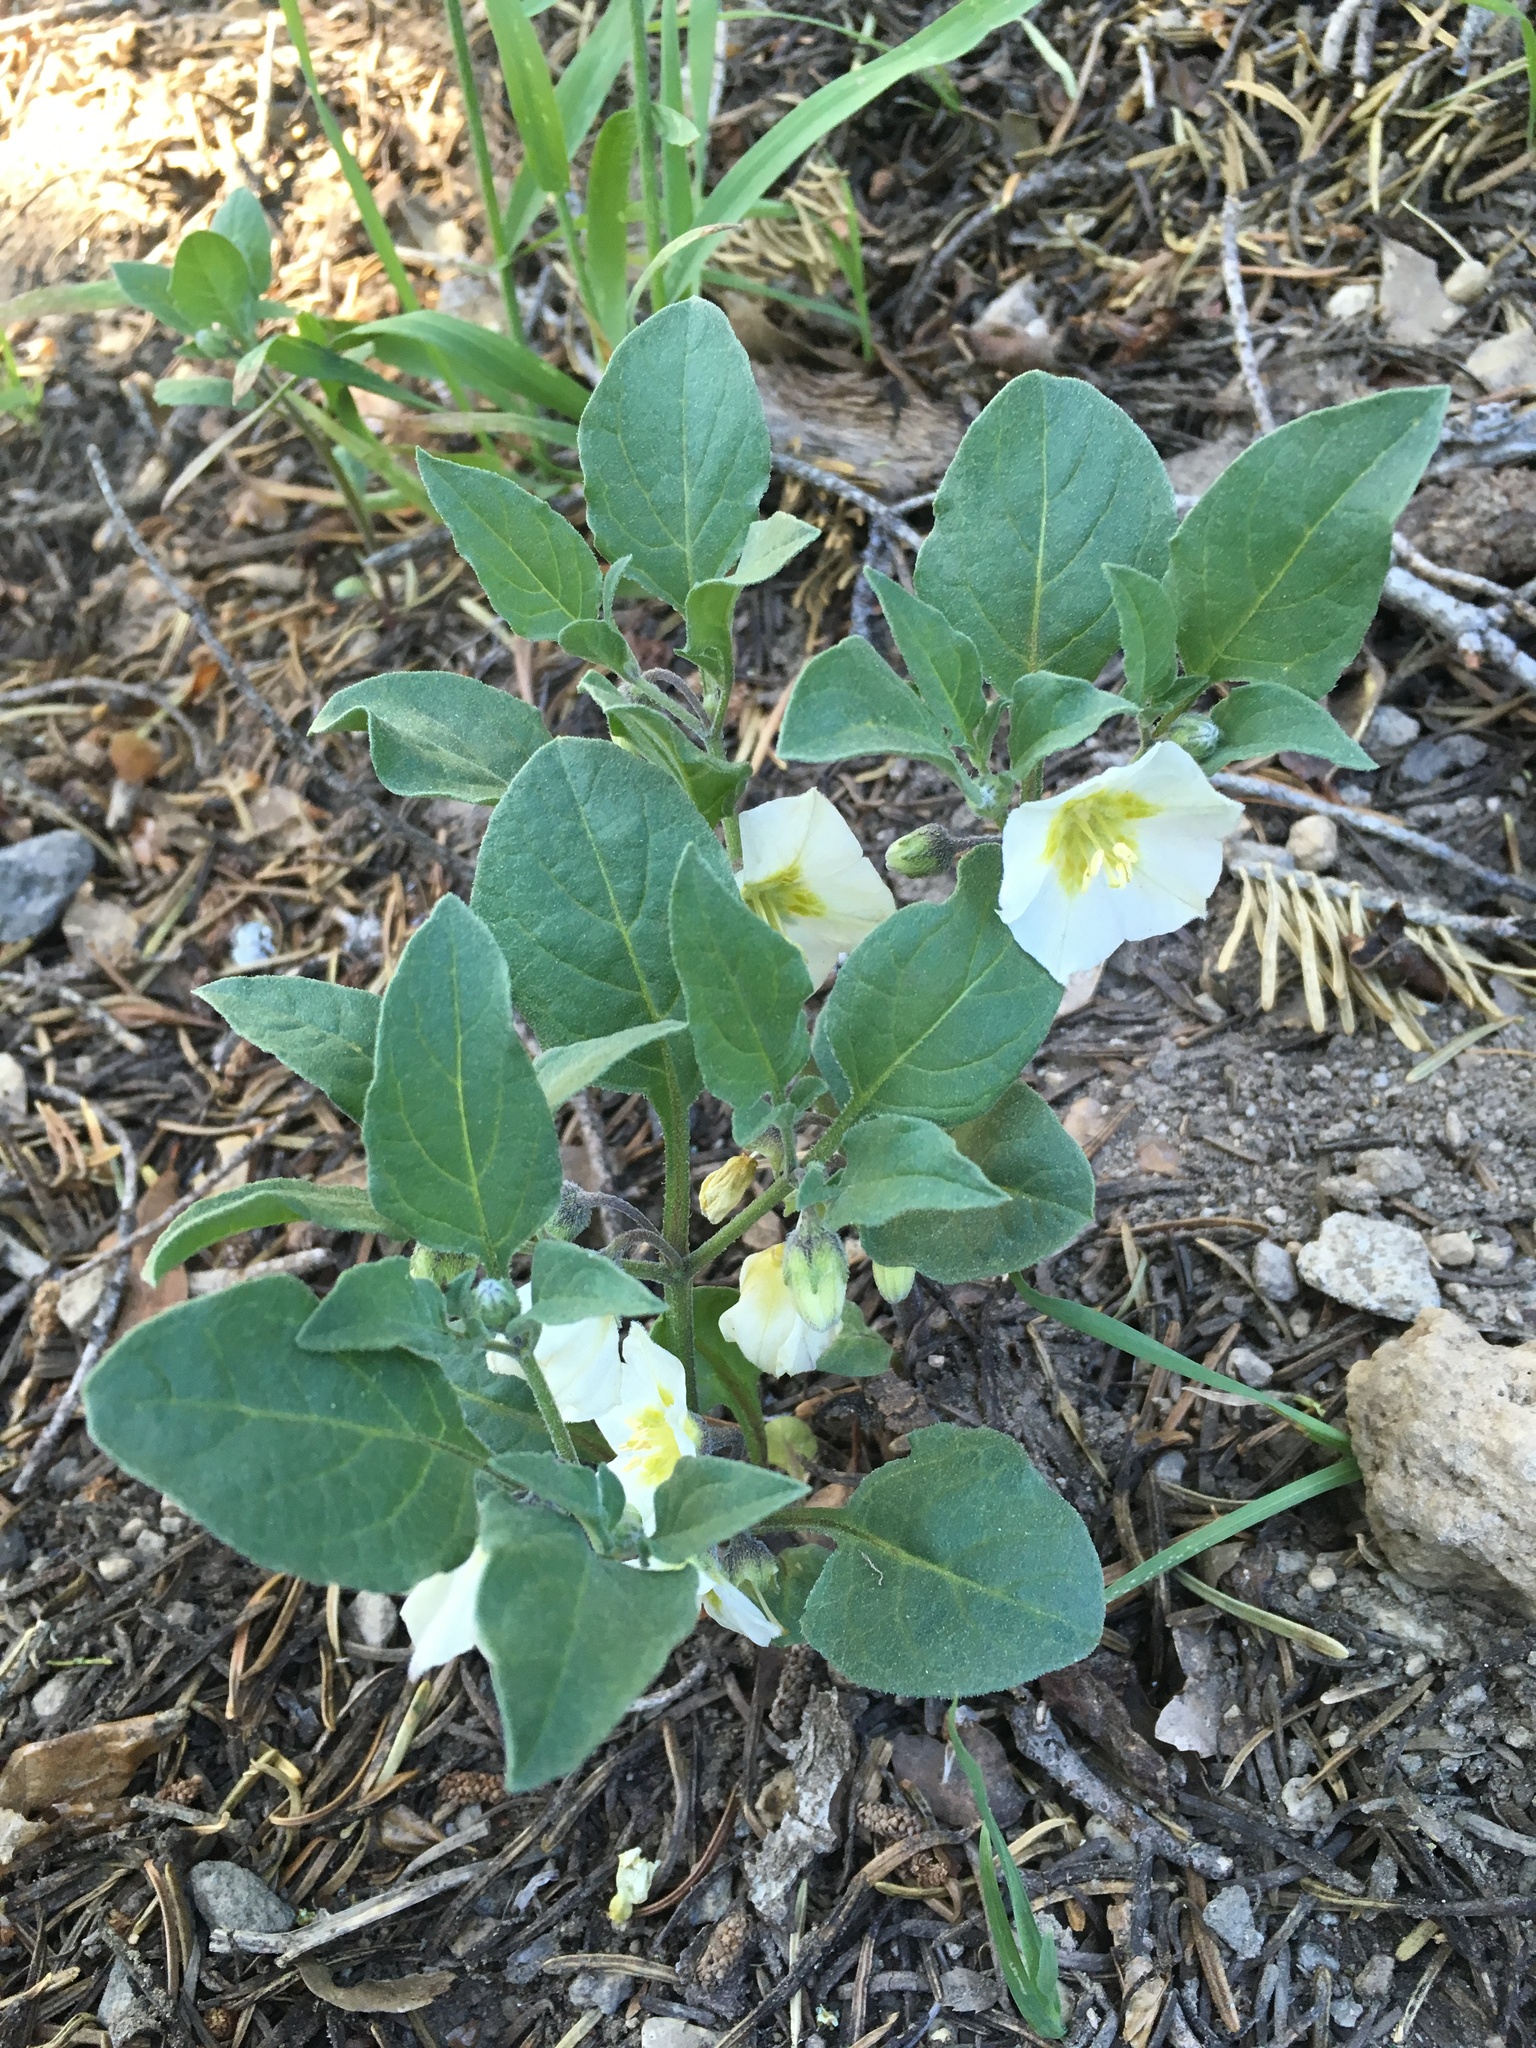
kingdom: Plantae
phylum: Tracheophyta
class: Magnoliopsida
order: Solanales
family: Solanaceae
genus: Leucophysalis
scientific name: Leucophysalis nana
